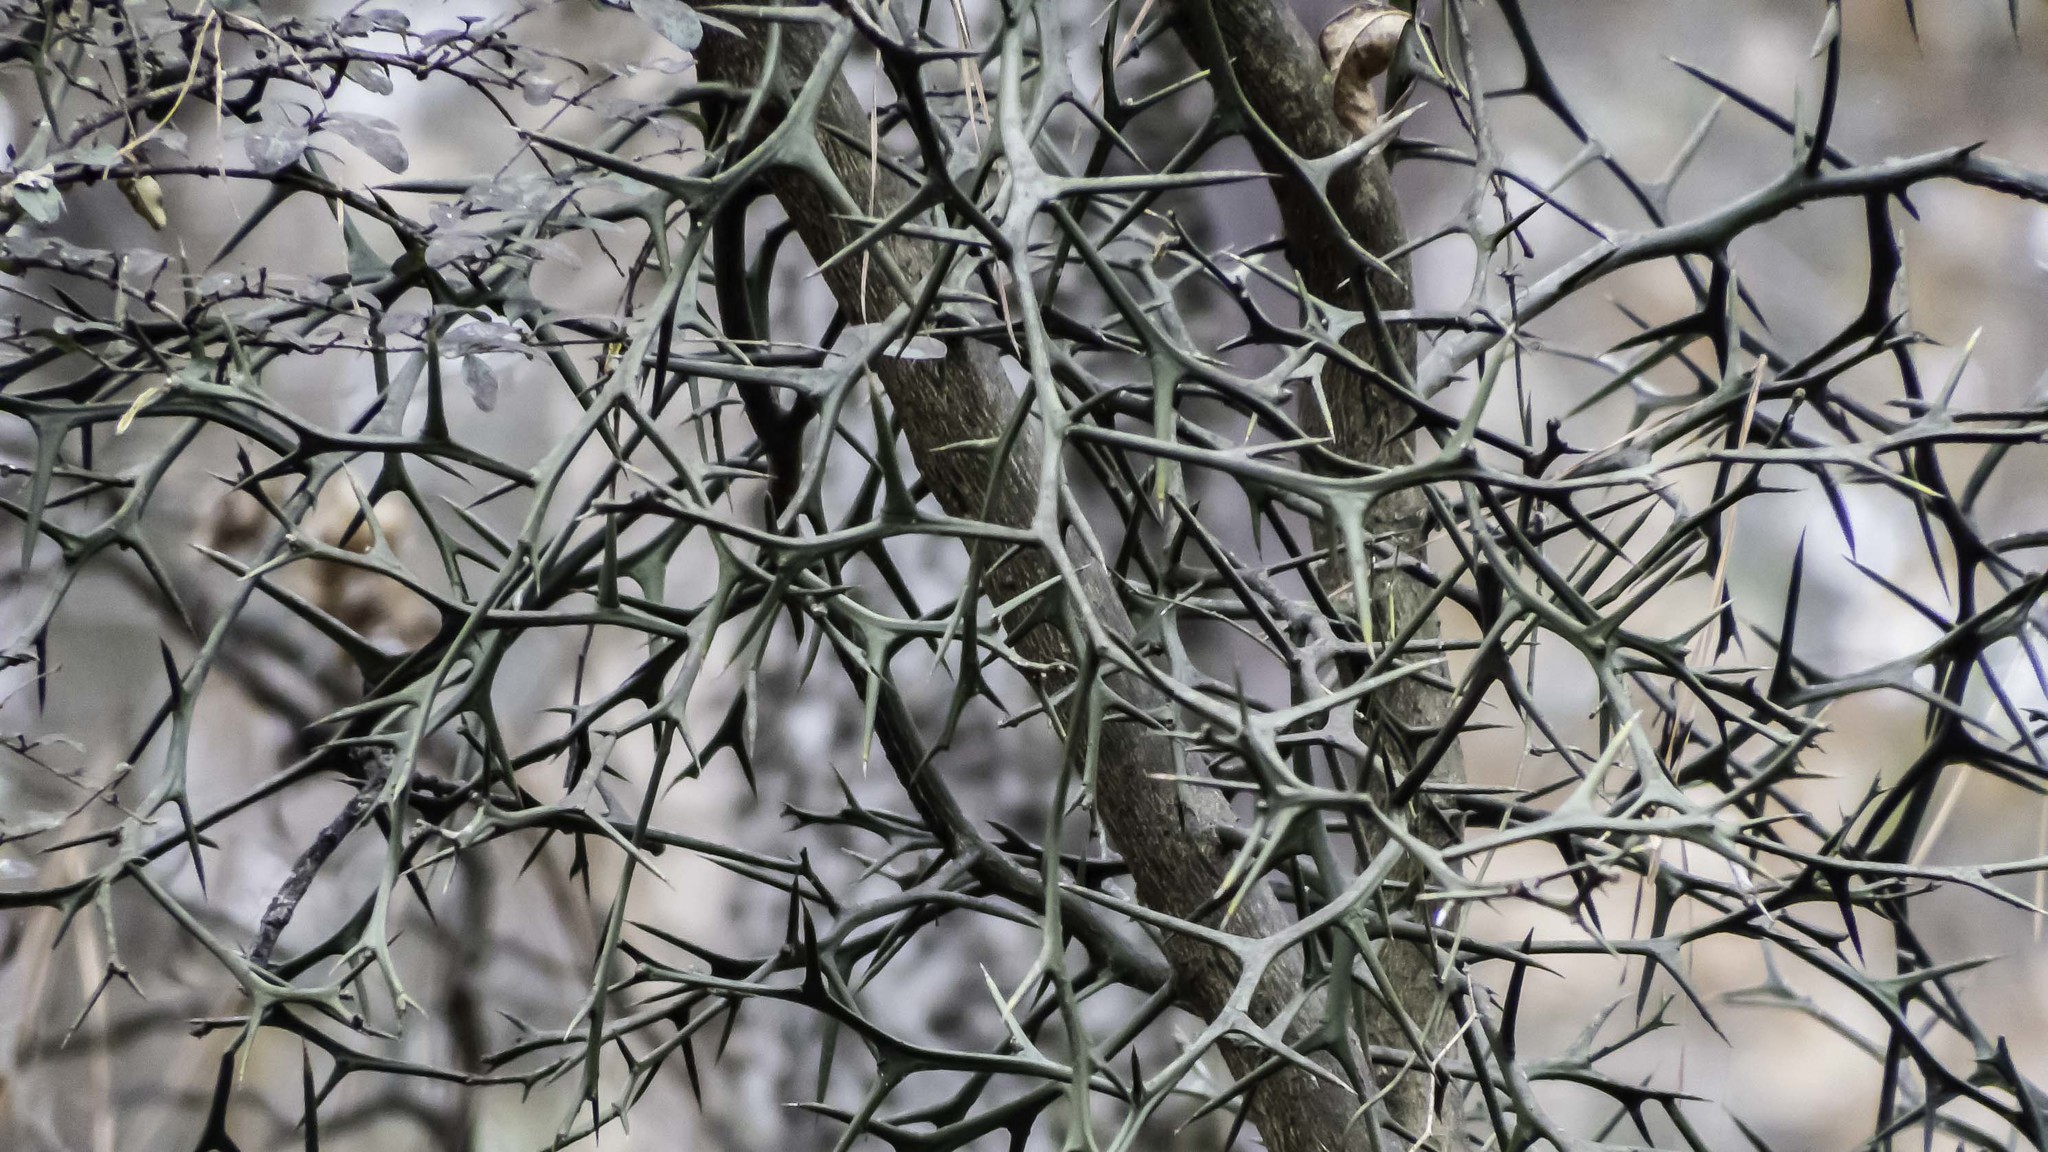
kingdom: Plantae
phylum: Tracheophyta
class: Magnoliopsida
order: Sapindales
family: Rutaceae
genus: Citrus
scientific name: Citrus trifoliata
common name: Japanese bitter-orange
